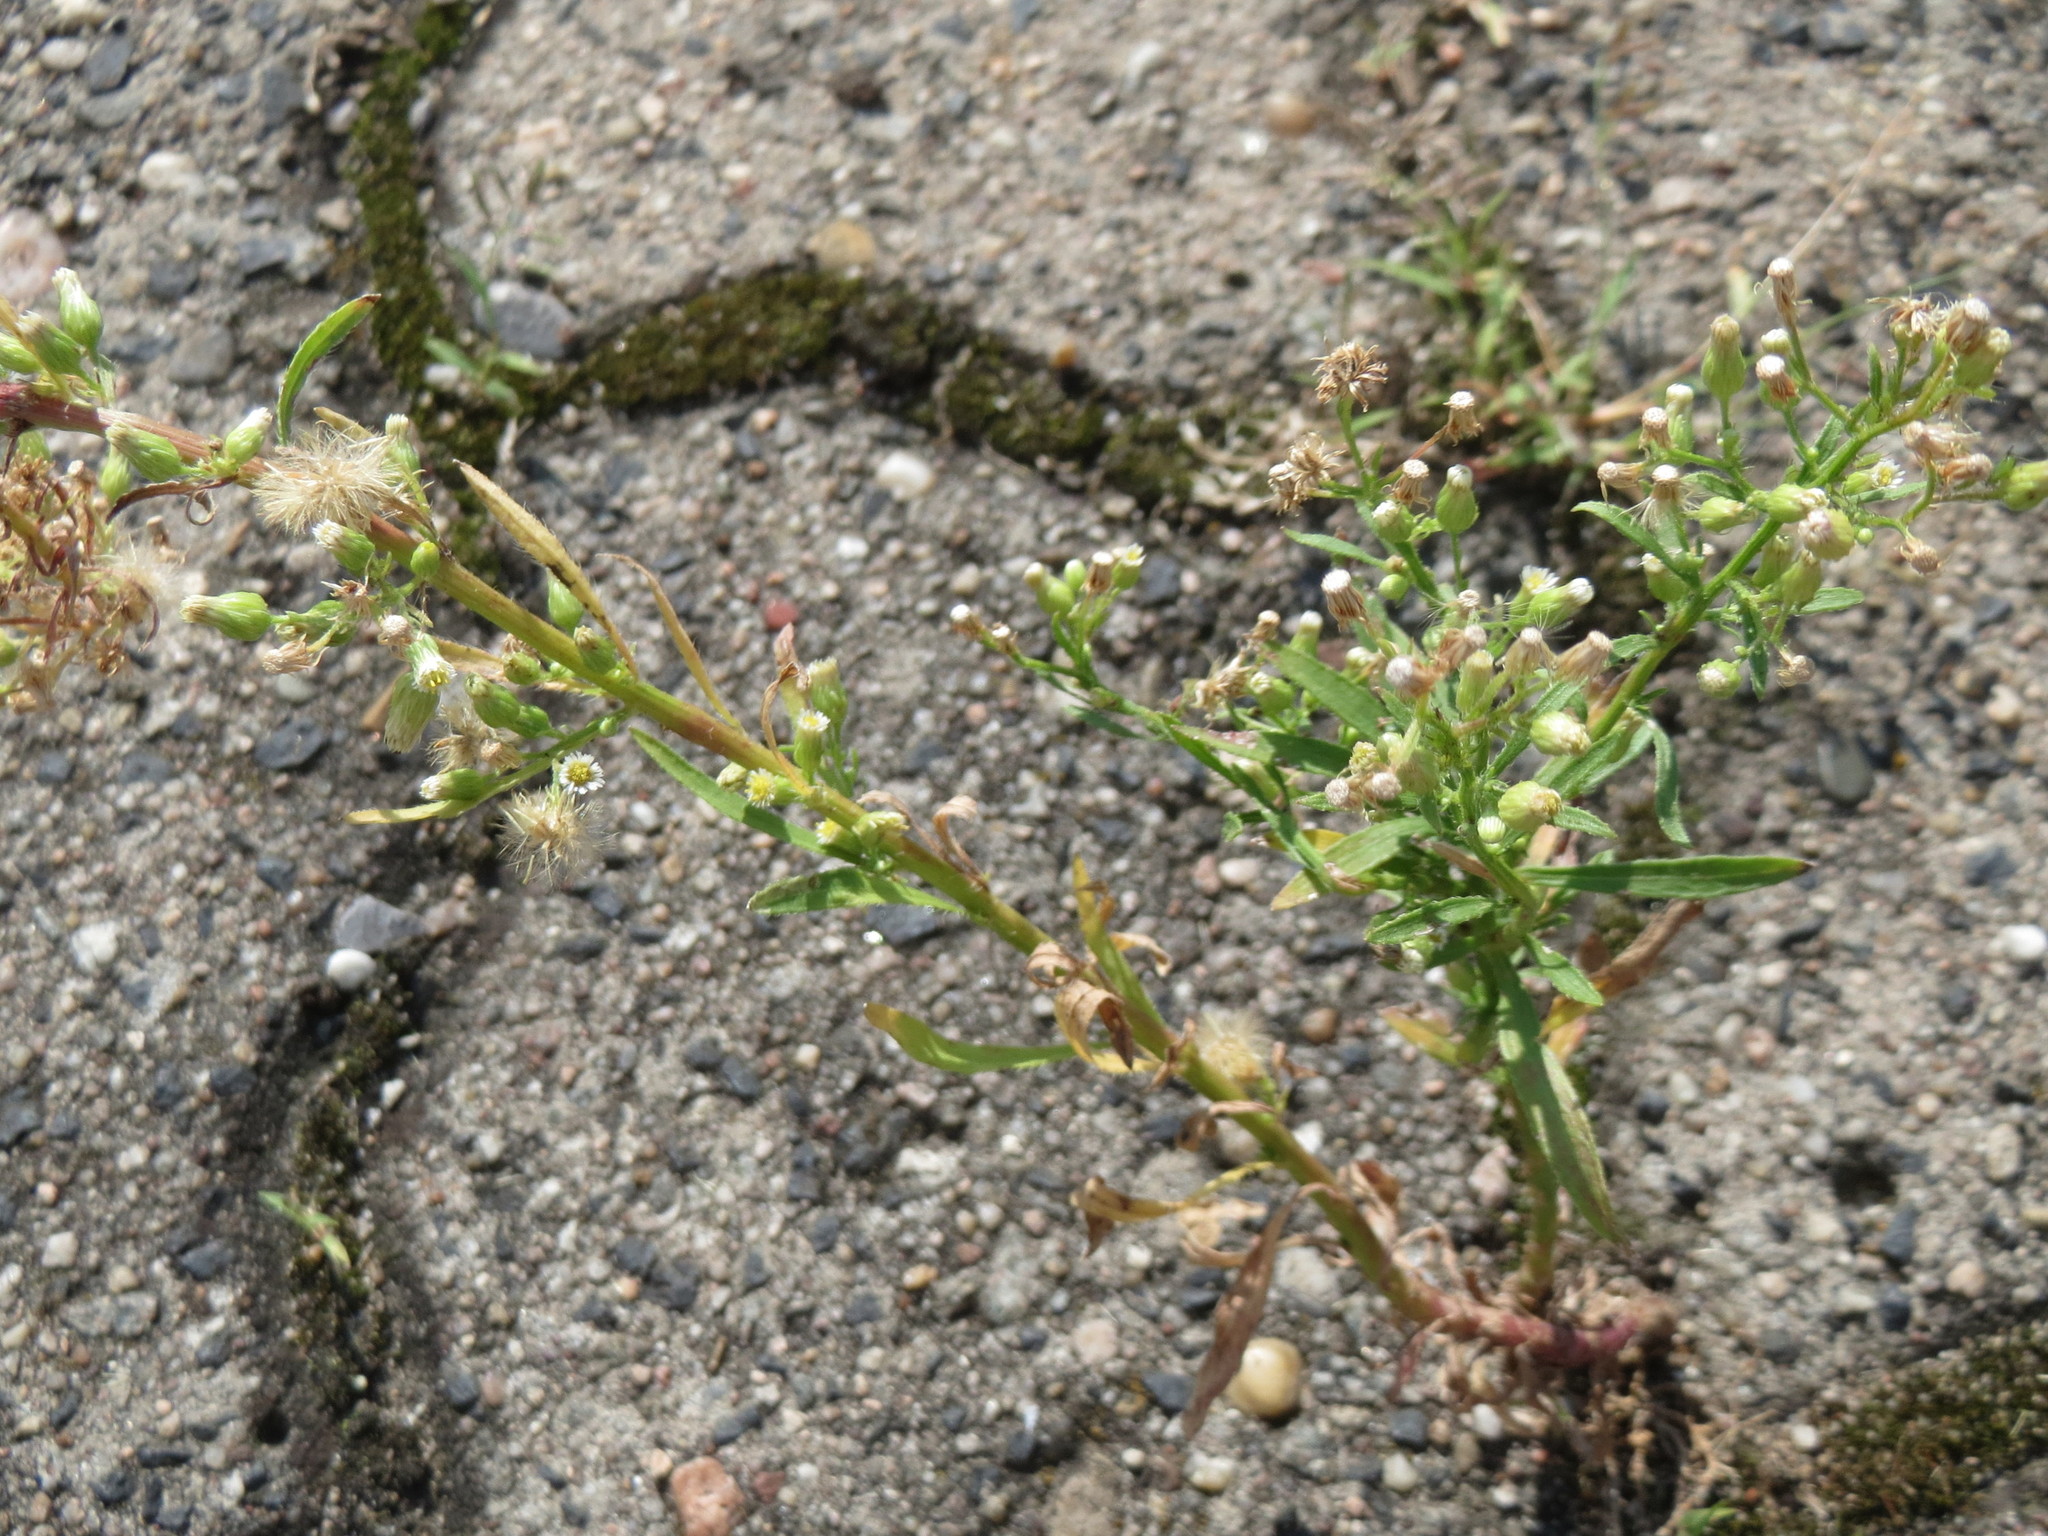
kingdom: Plantae
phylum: Tracheophyta
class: Magnoliopsida
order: Asterales
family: Asteraceae
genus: Erigeron
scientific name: Erigeron canadensis
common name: Canadian fleabane
